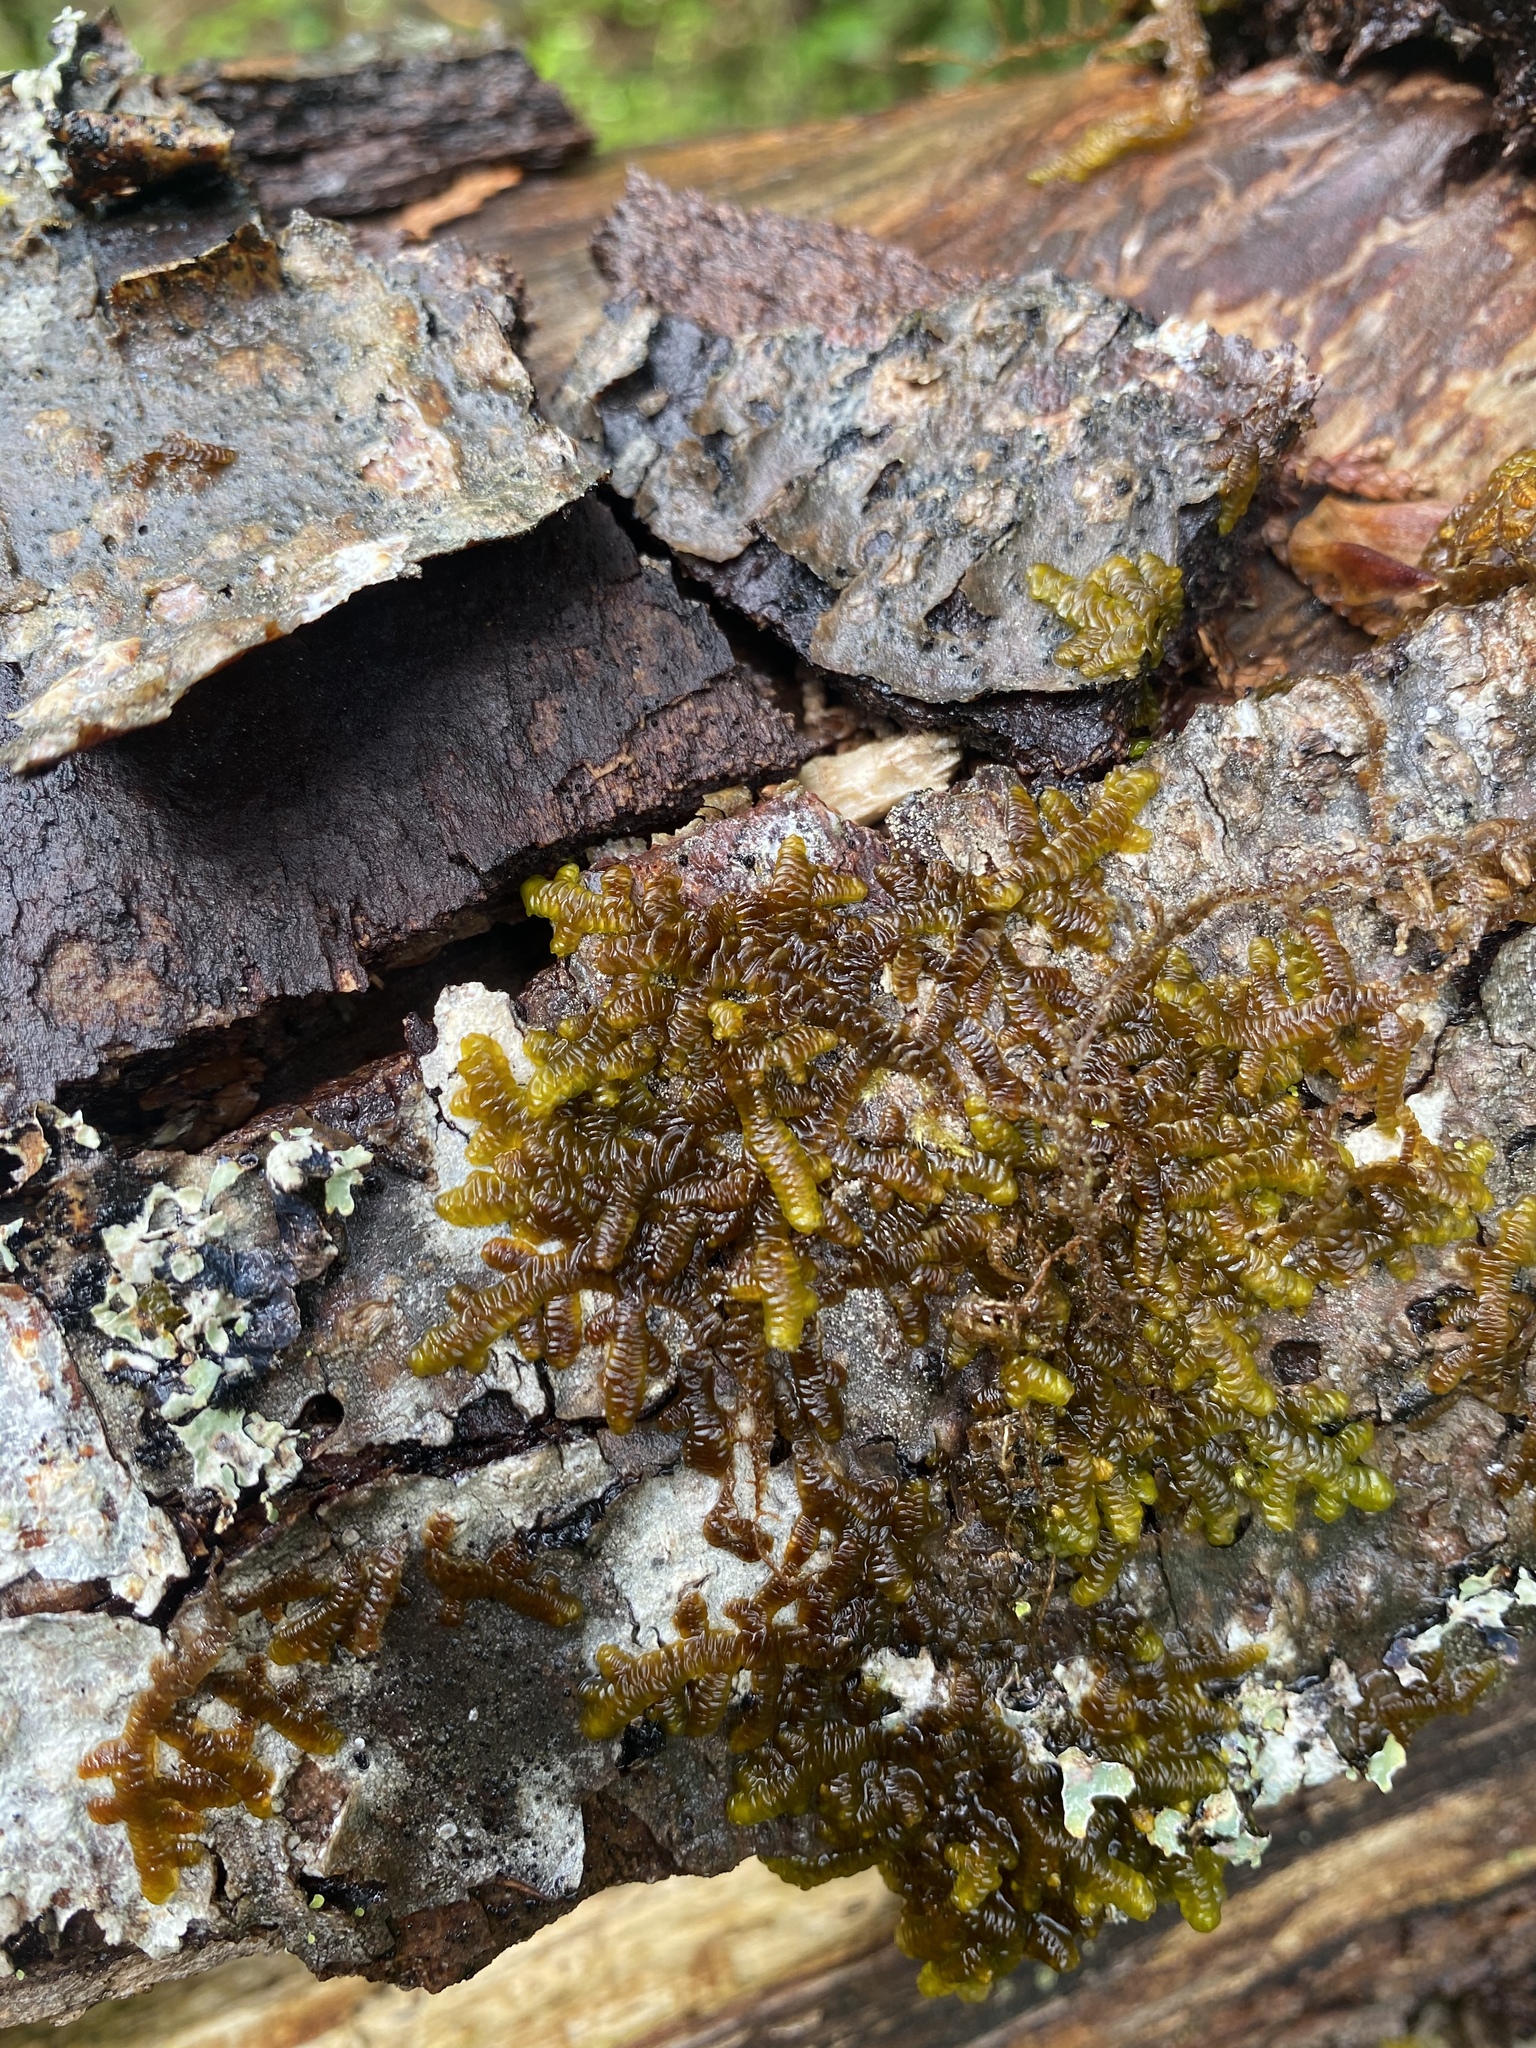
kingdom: Plantae
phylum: Marchantiophyta
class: Jungermanniopsida
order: Porellales
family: Porellaceae
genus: Porella
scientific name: Porella navicularis
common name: Tree ruffle liverwort
